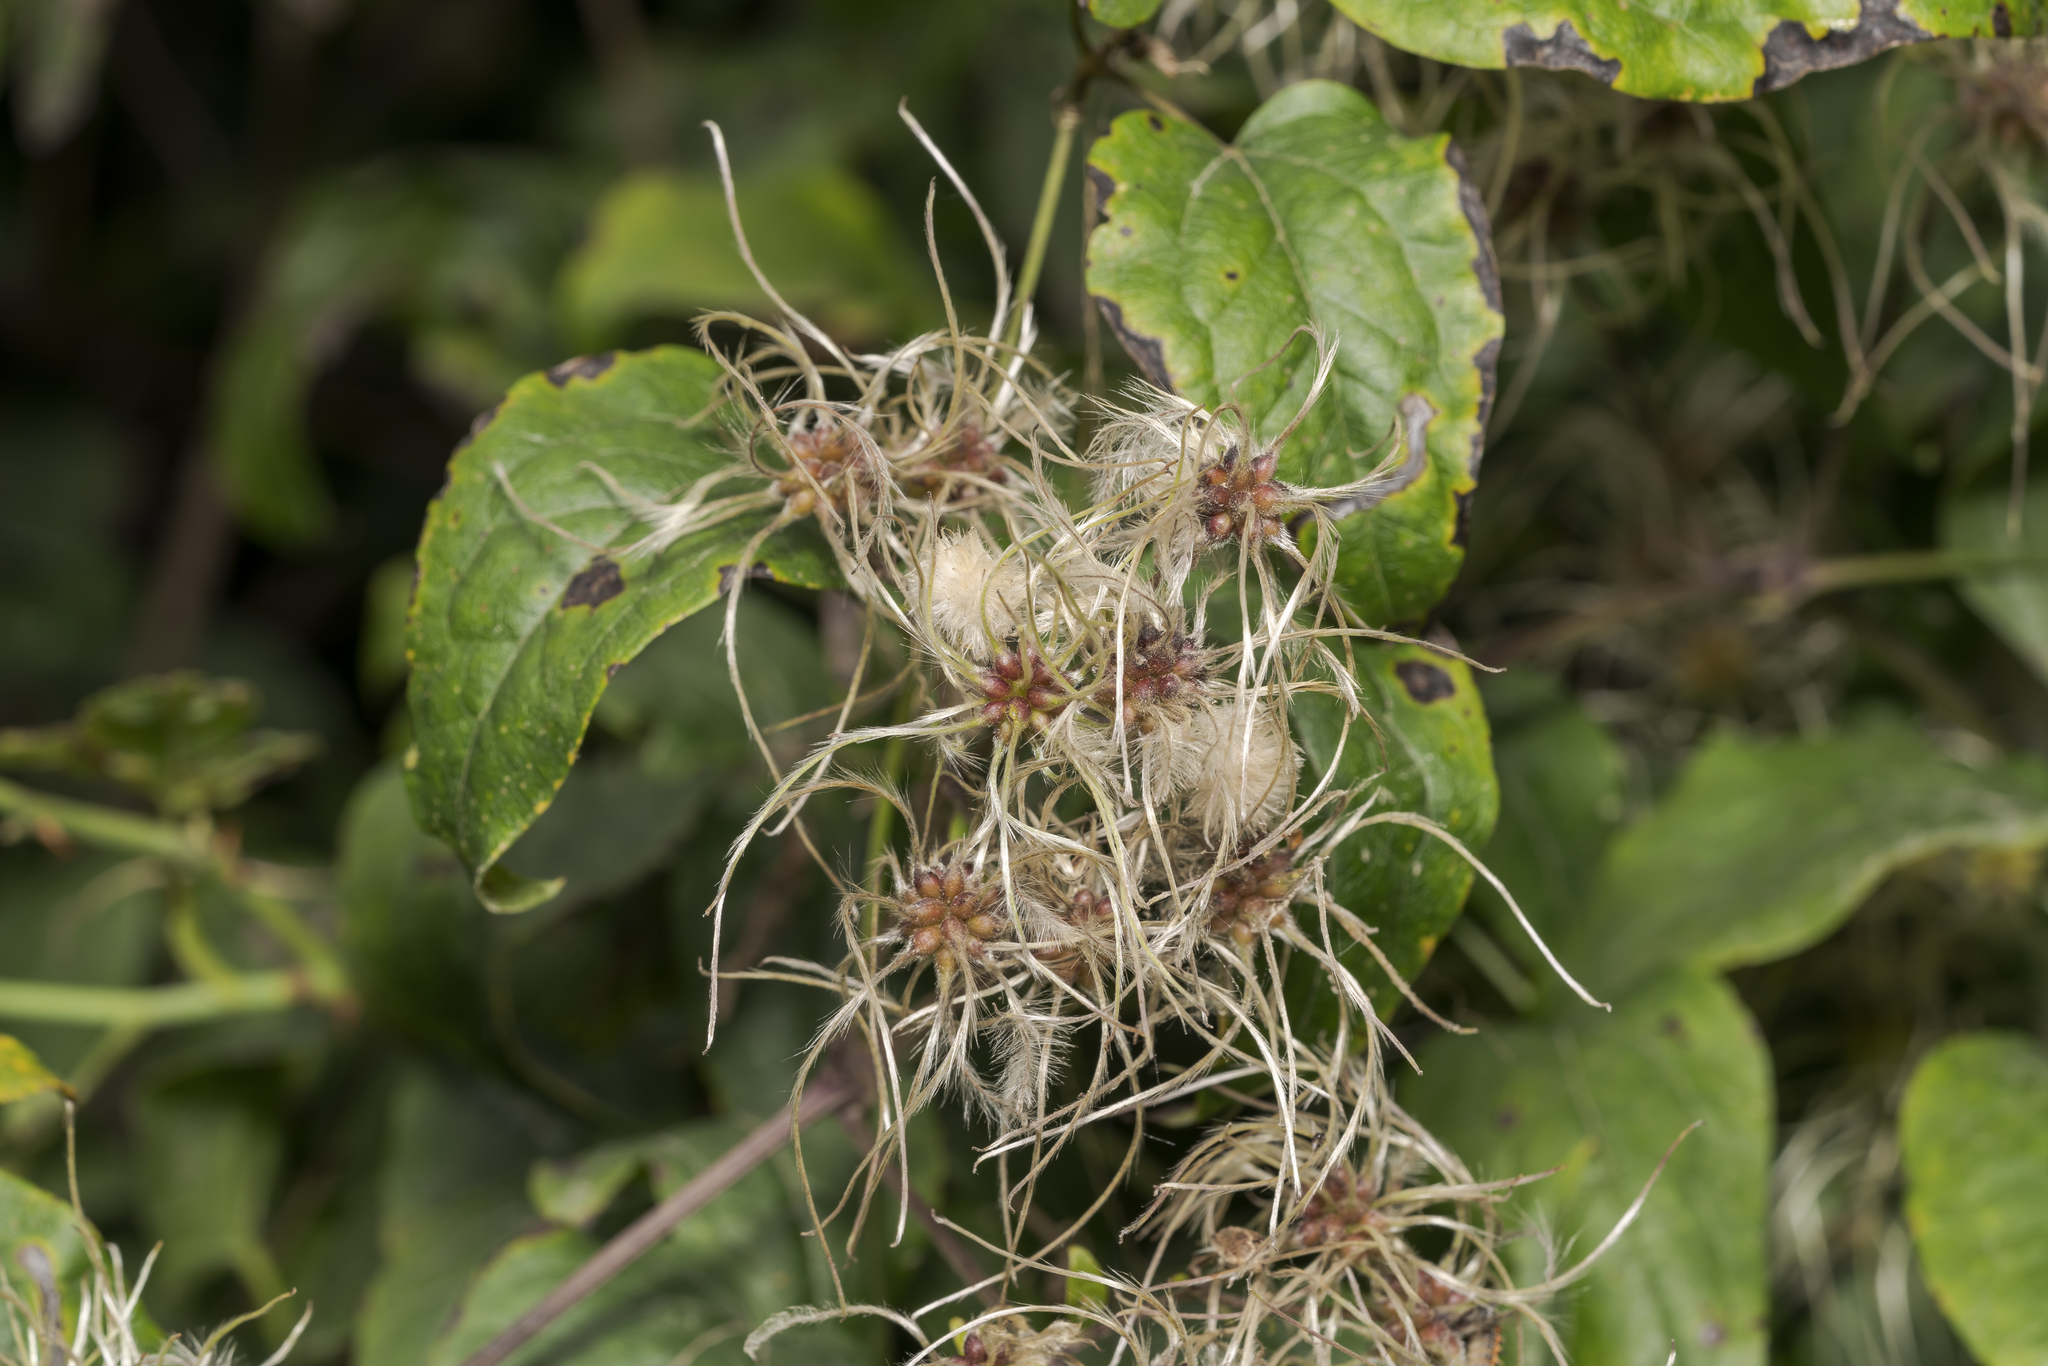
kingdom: Plantae
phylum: Tracheophyta
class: Magnoliopsida
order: Ranunculales
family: Ranunculaceae
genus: Clematis
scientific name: Clematis vitalba
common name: Evergreen clematis
